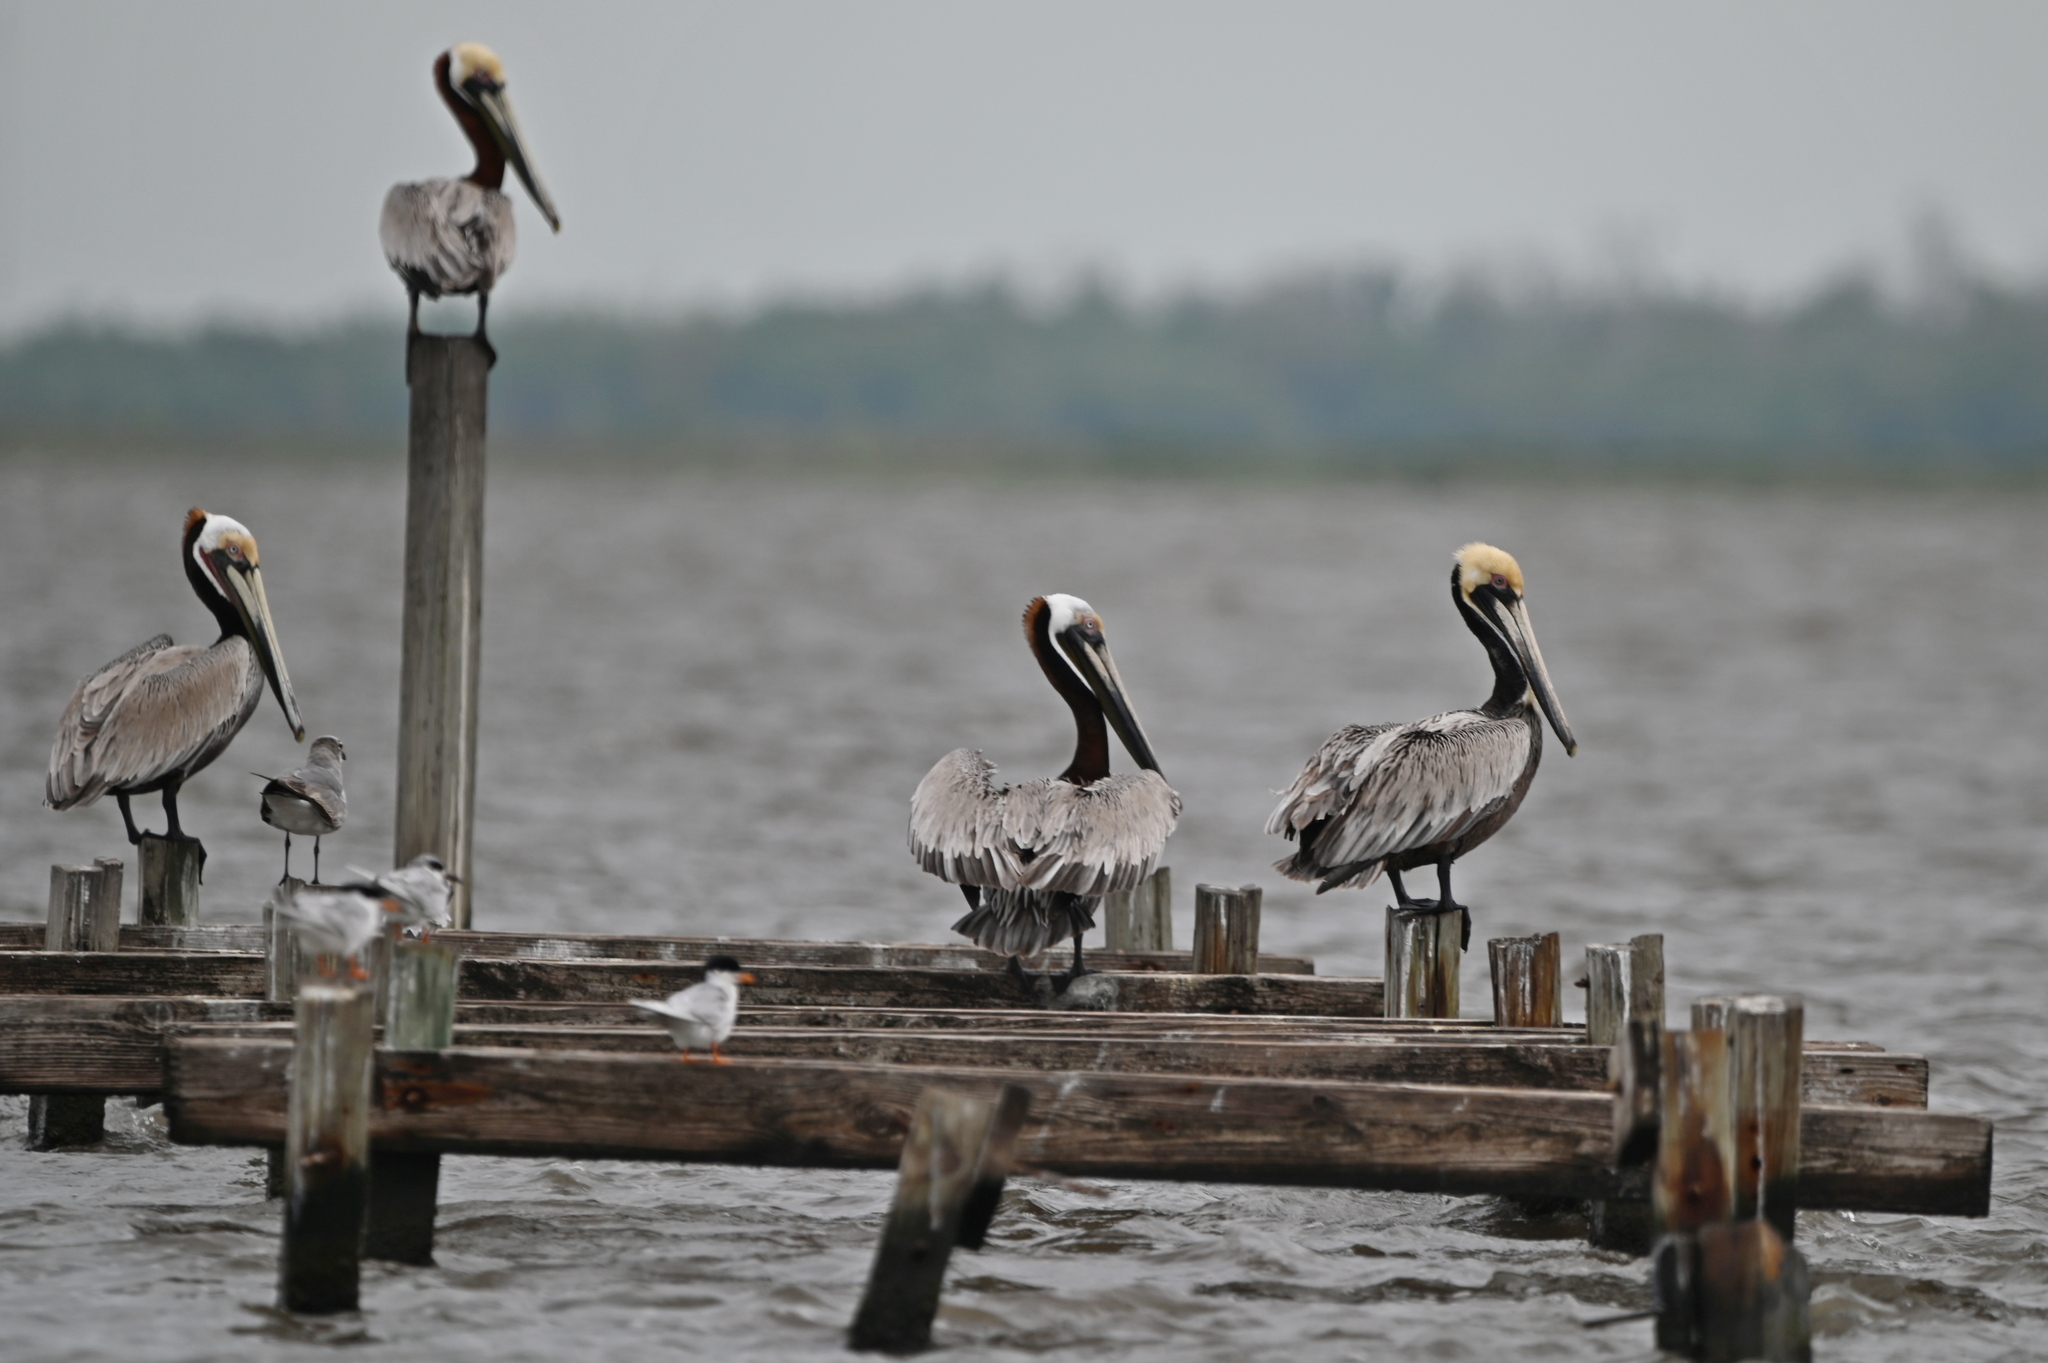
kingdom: Animalia
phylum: Chordata
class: Aves
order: Pelecaniformes
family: Pelecanidae
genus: Pelecanus
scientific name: Pelecanus occidentalis
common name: Brown pelican
